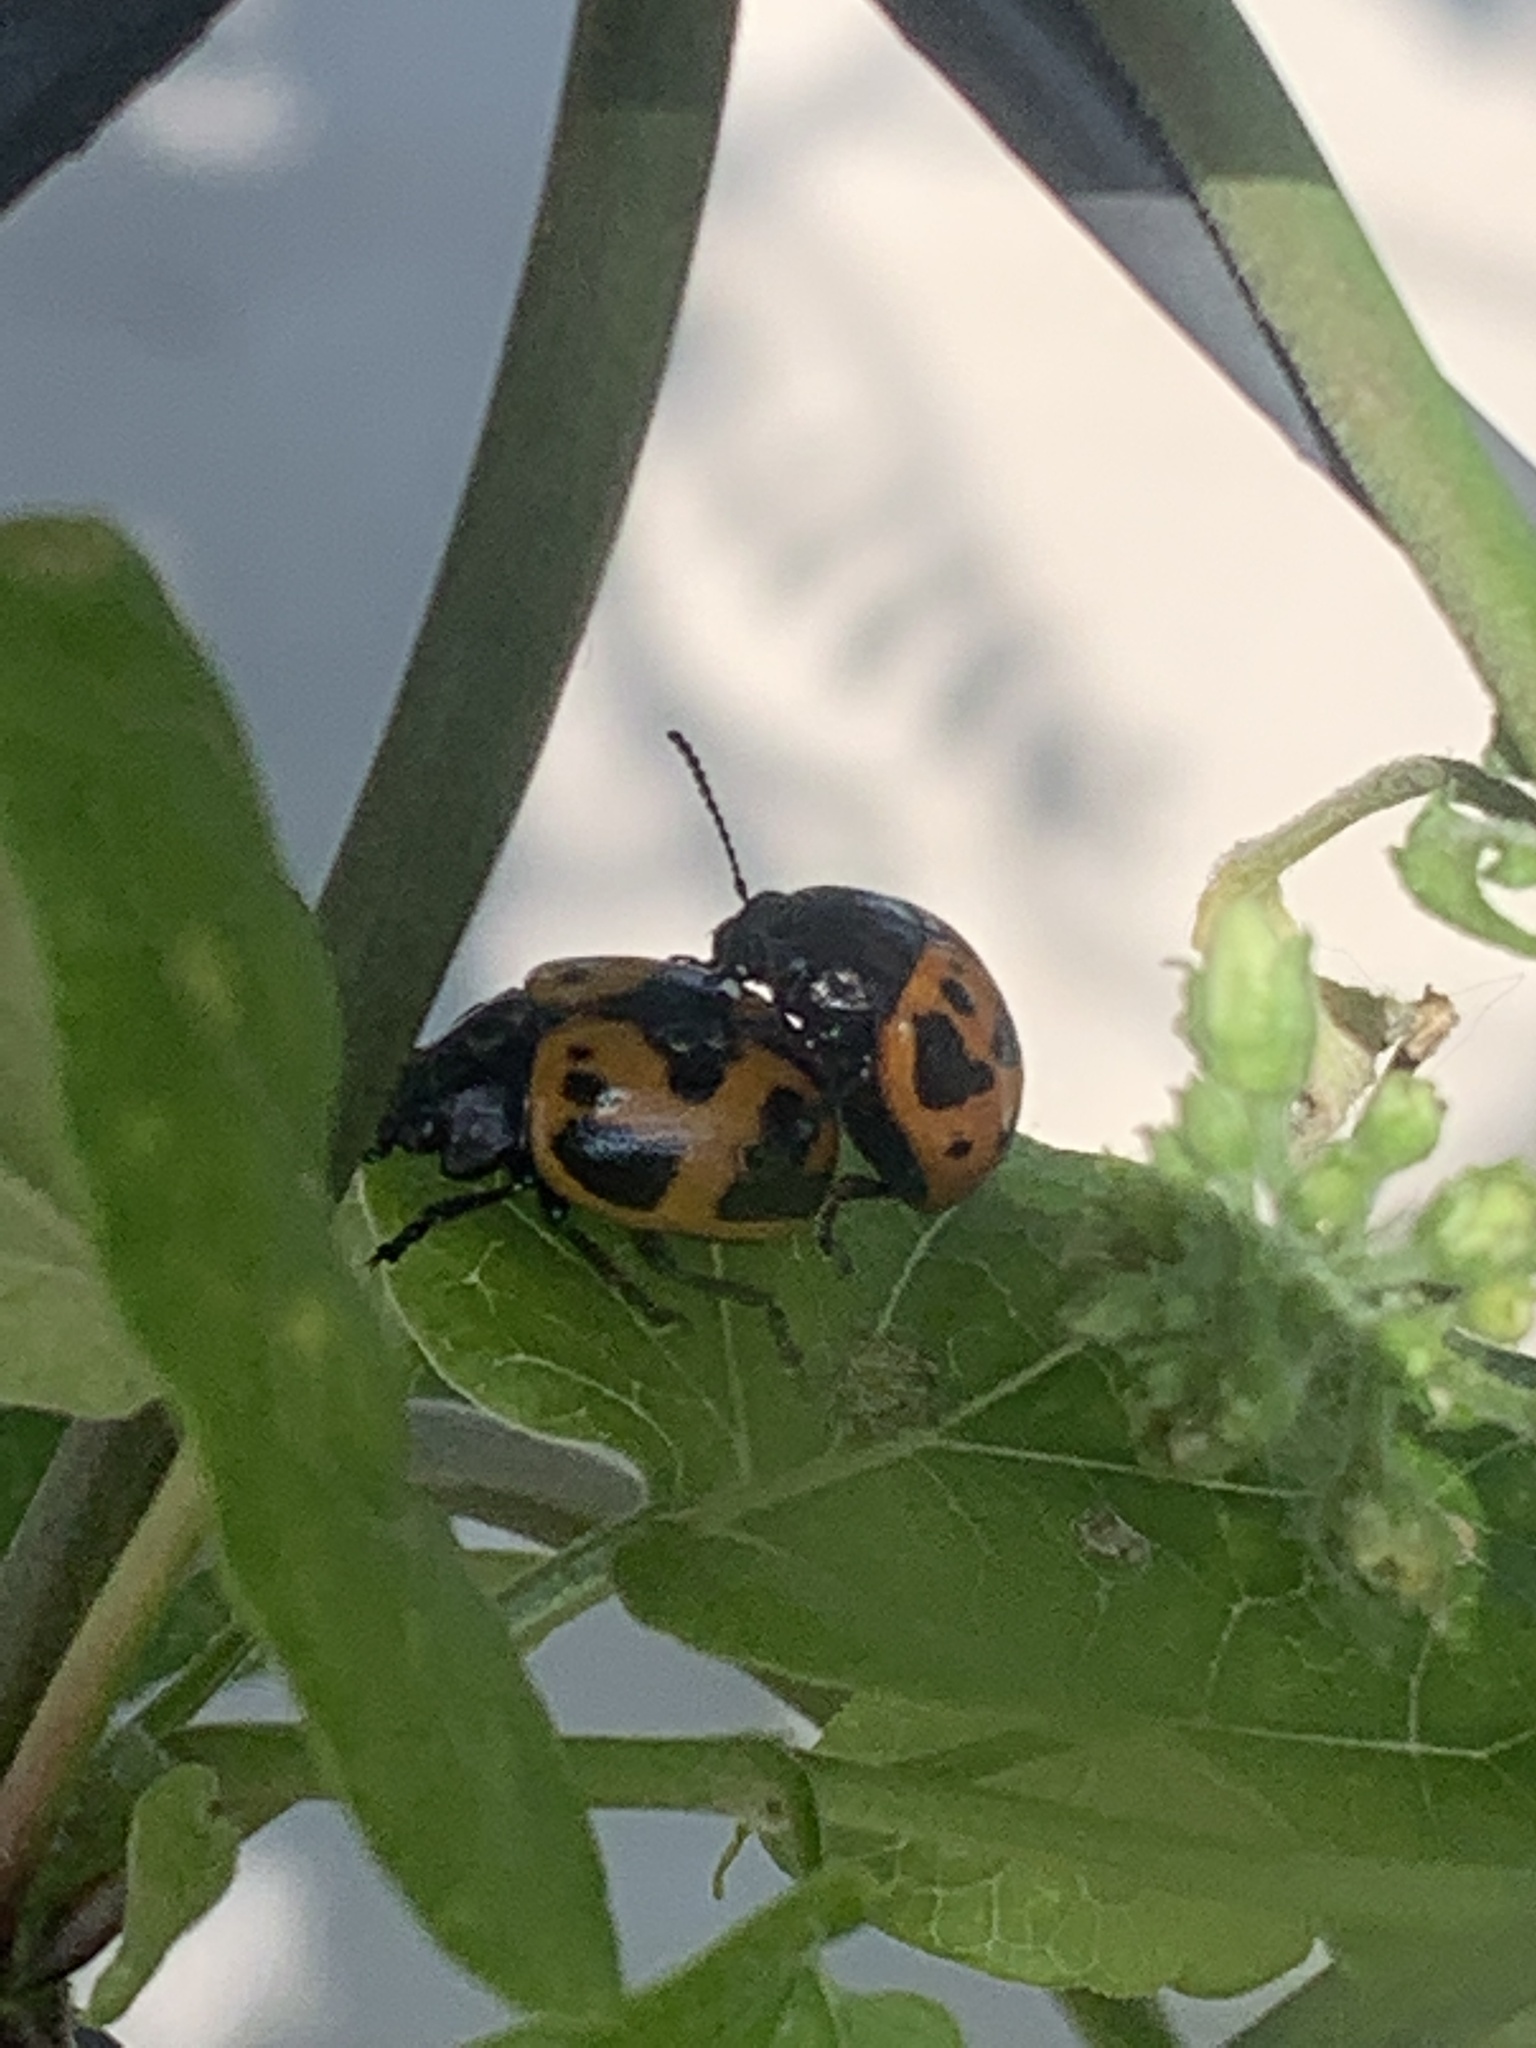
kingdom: Animalia
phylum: Arthropoda
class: Insecta
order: Coleoptera
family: Chrysomelidae
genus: Labidomera
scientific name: Labidomera clivicollis
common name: Swamp milkweed leaf beetle
